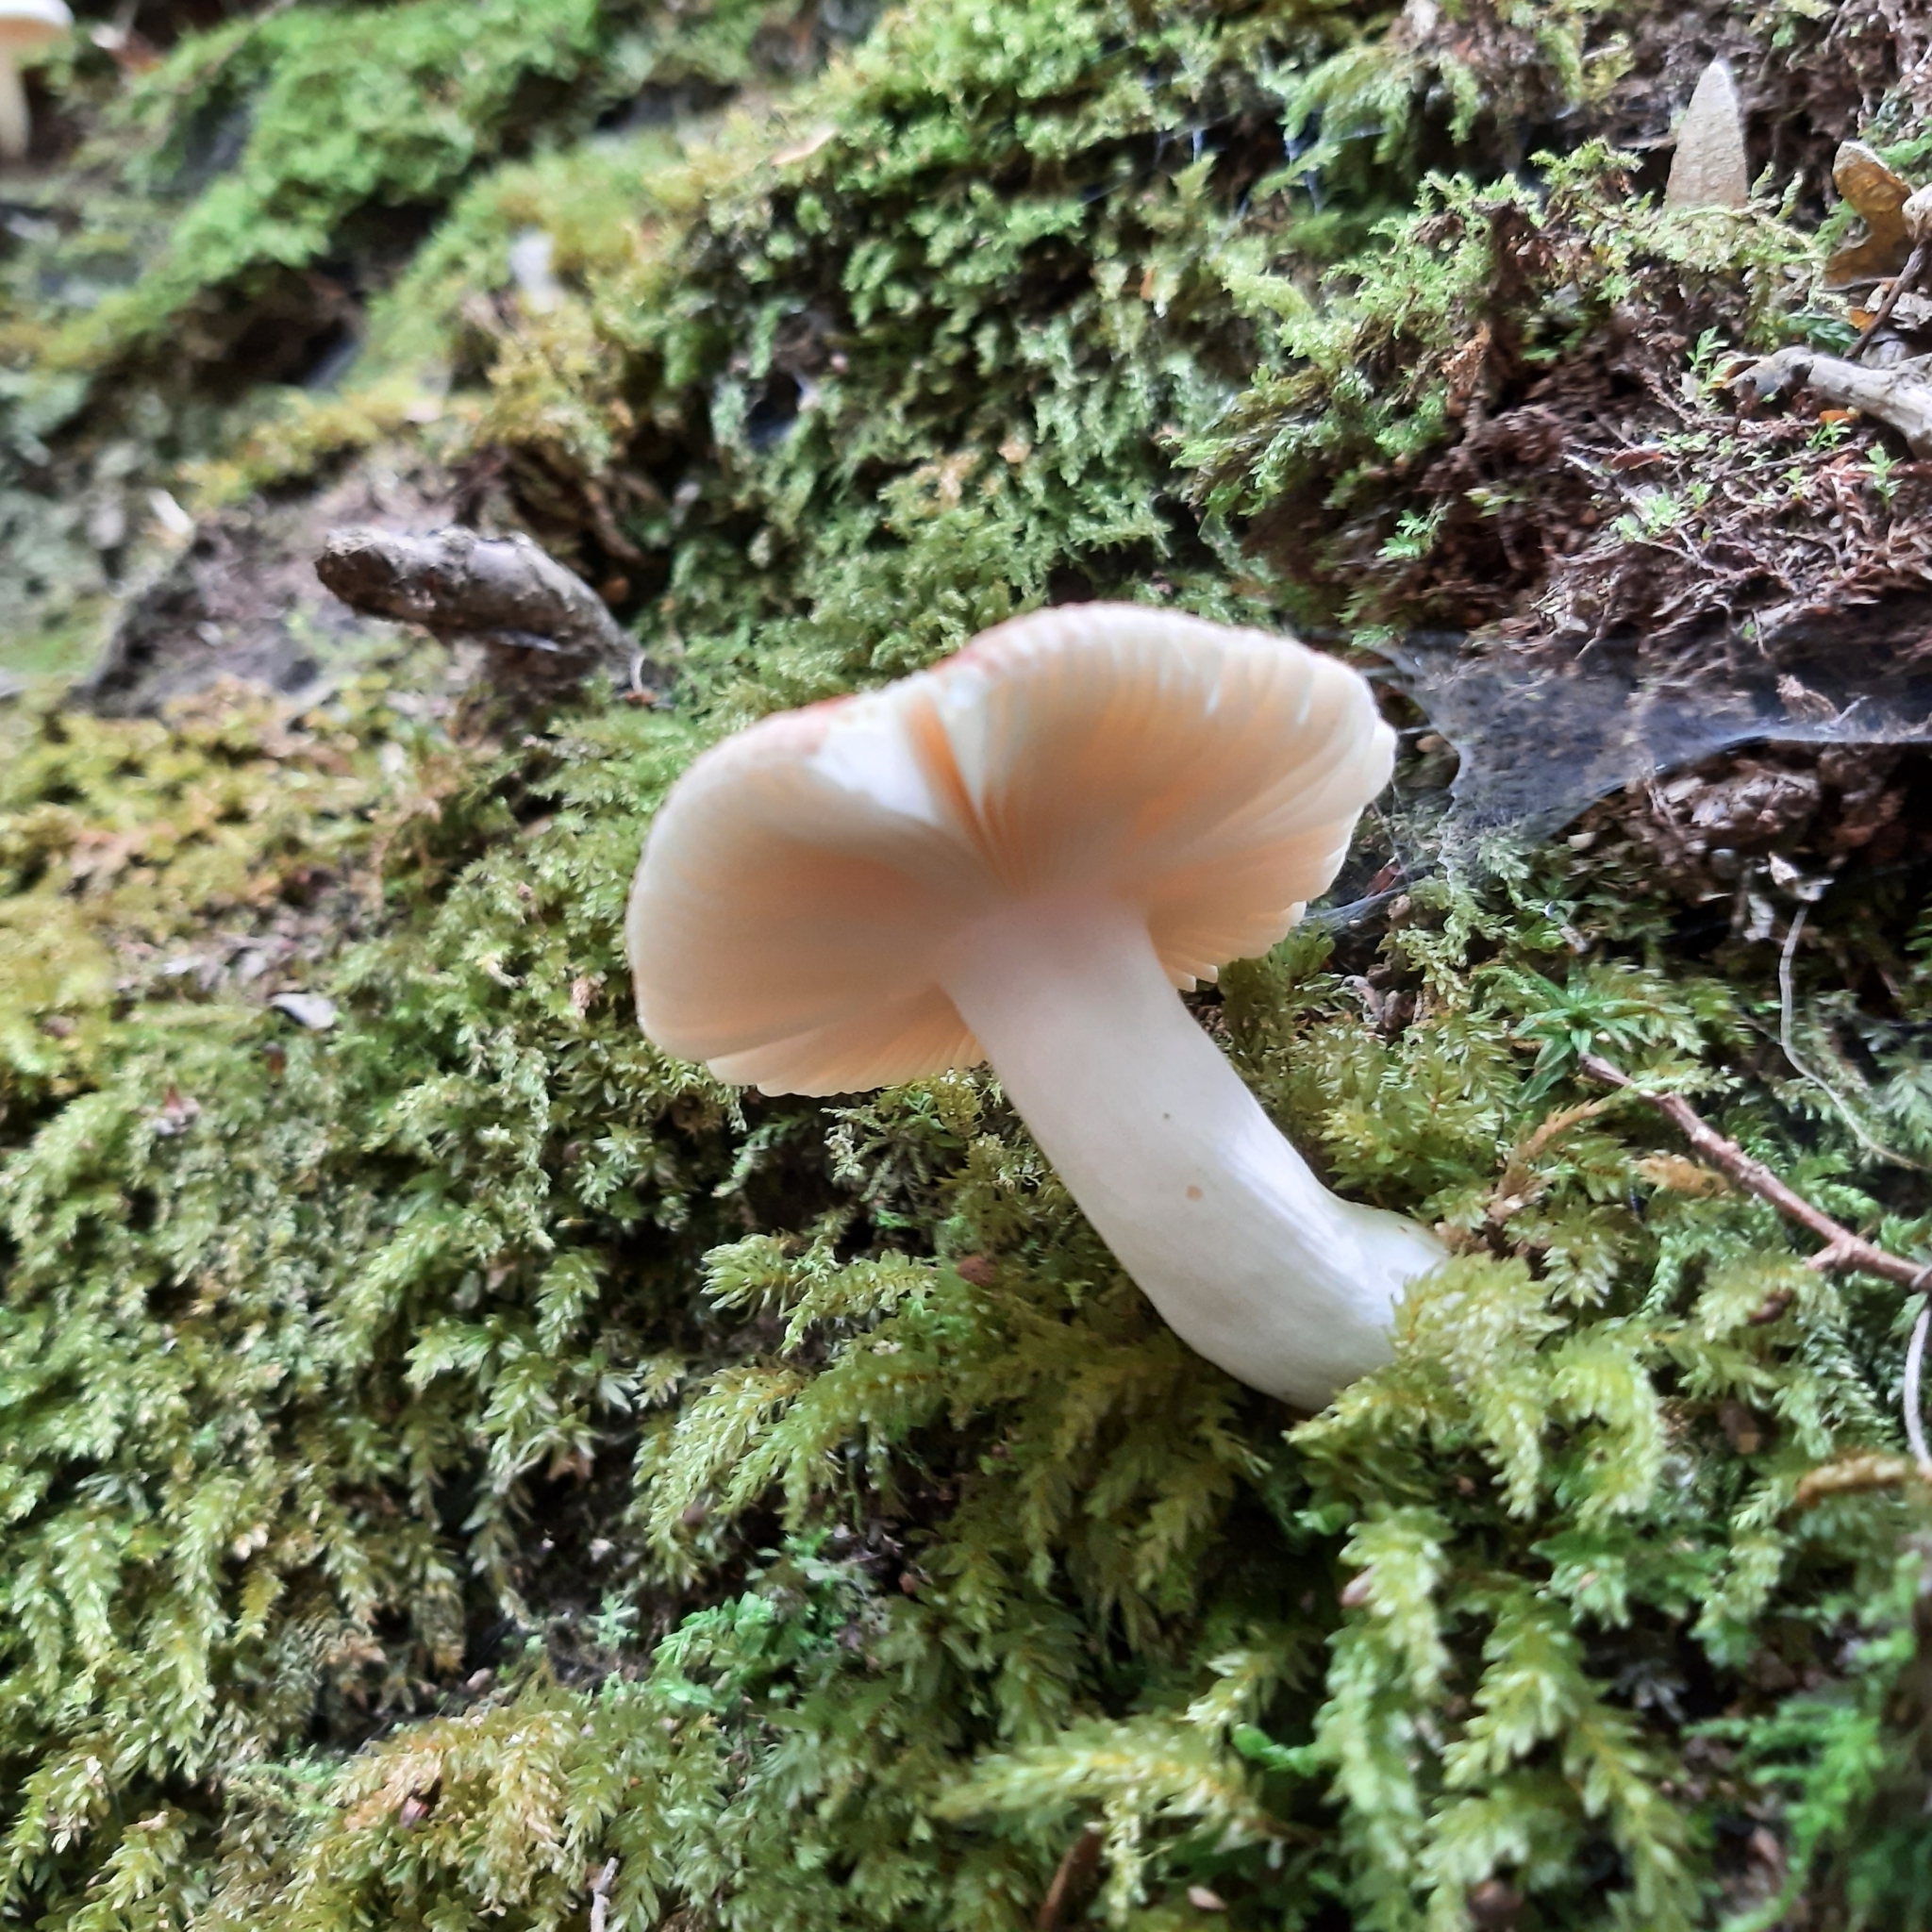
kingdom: Fungi
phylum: Basidiomycota
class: Agaricomycetes
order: Russulales
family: Russulaceae
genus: Russula
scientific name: Russula
